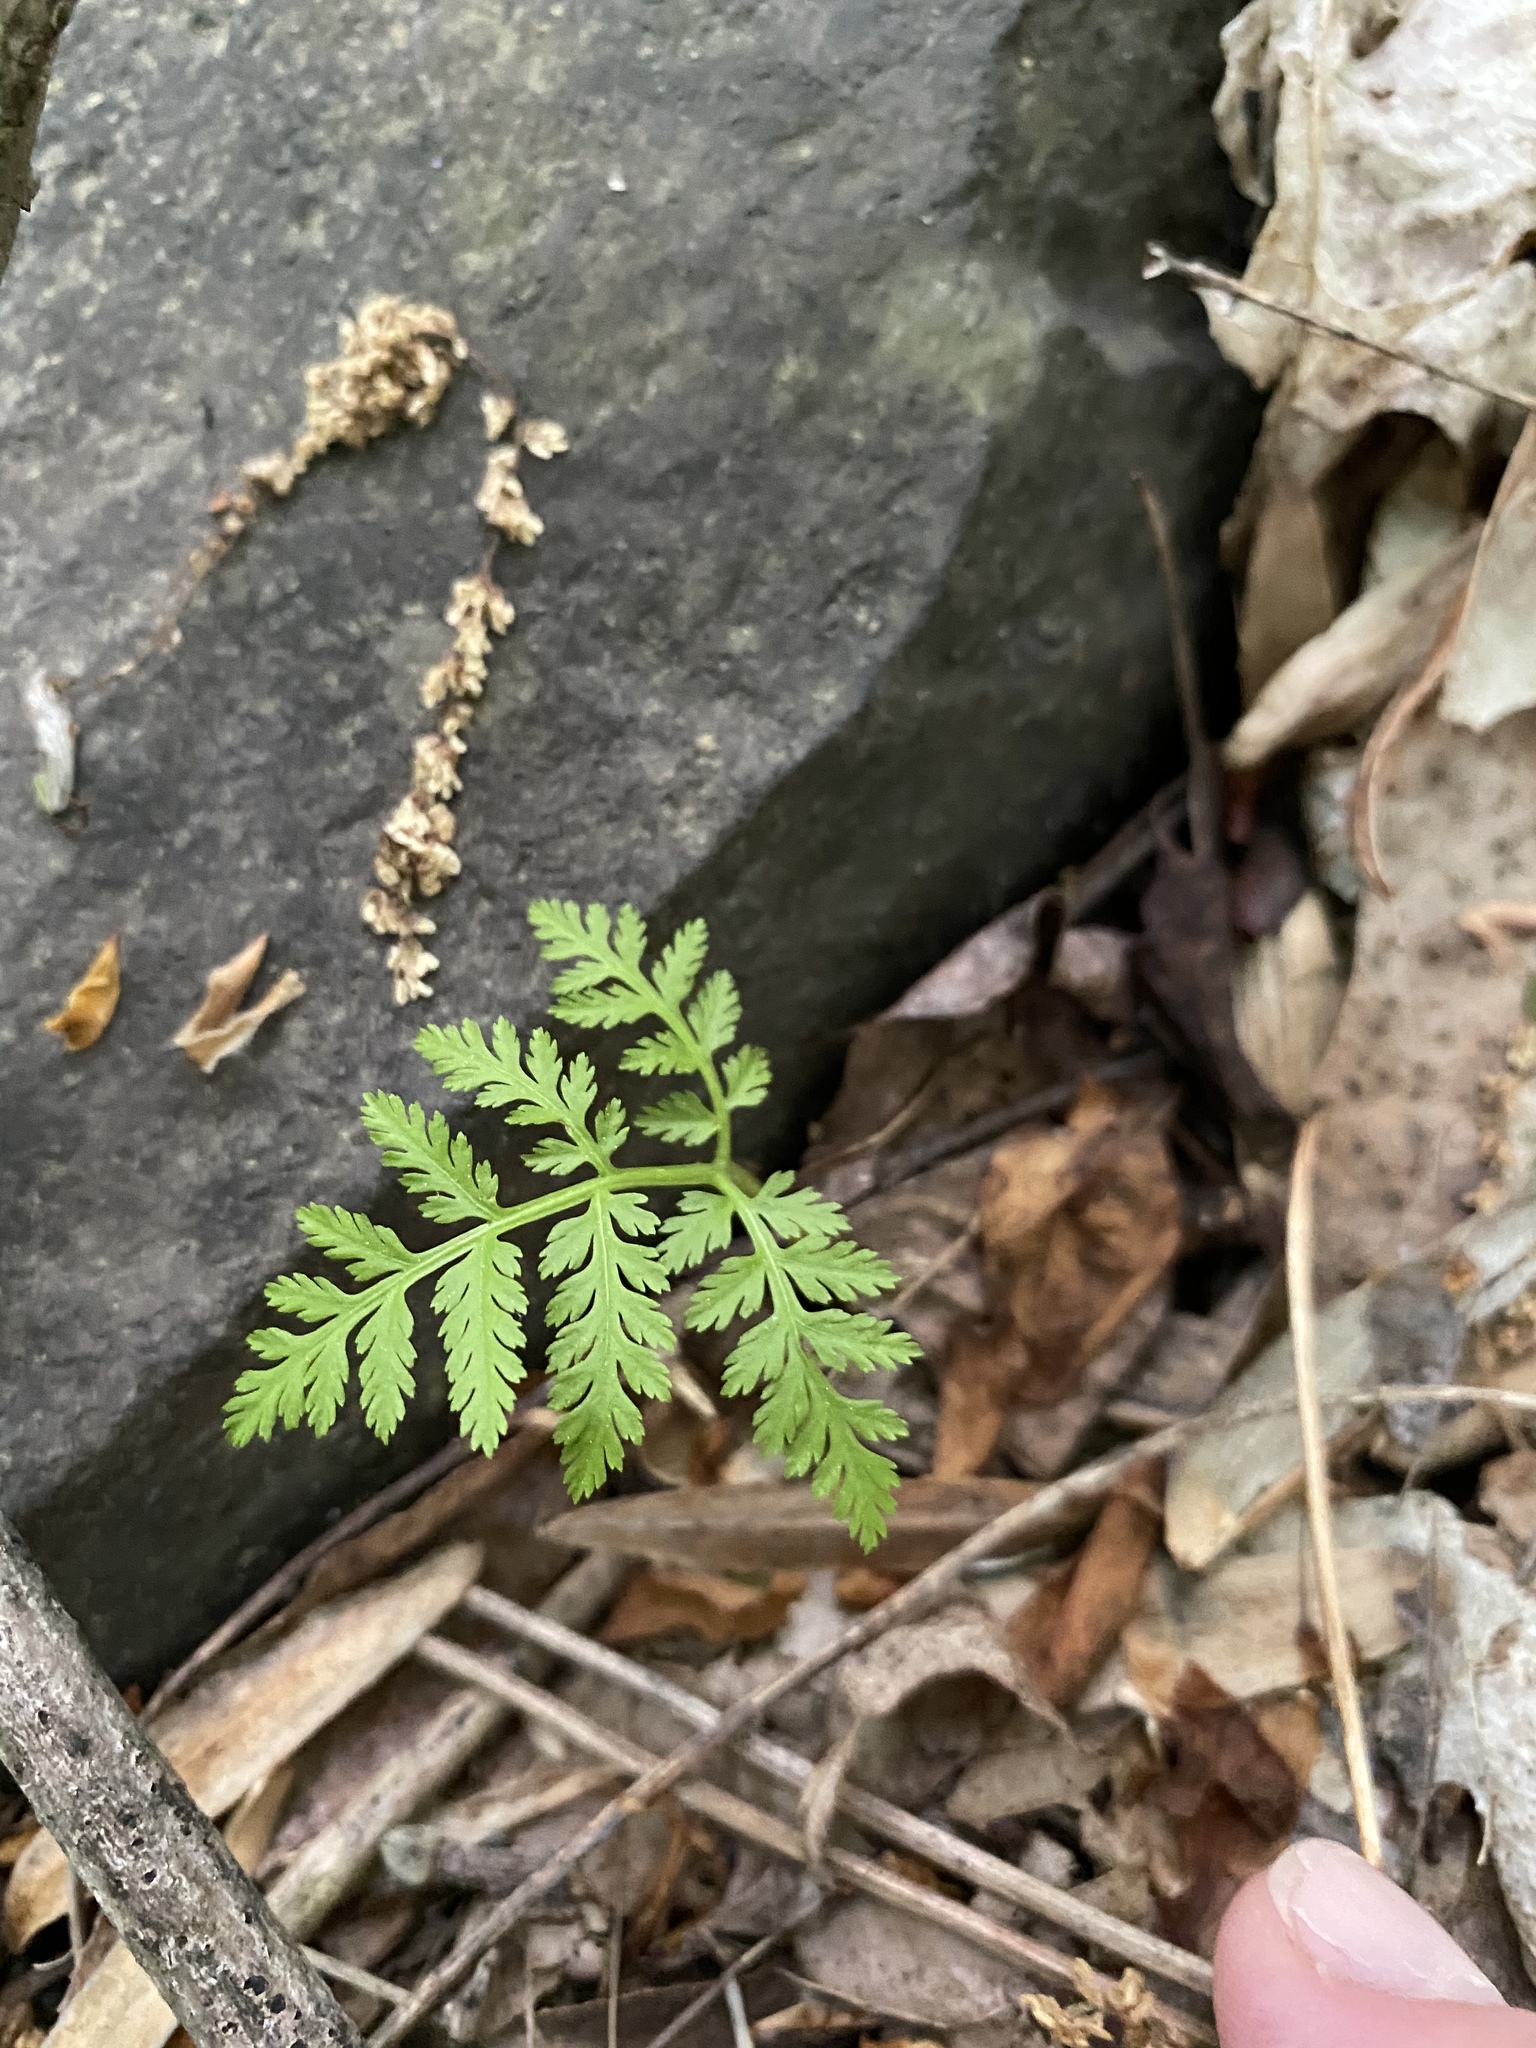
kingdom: Plantae
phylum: Tracheophyta
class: Polypodiopsida
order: Ophioglossales
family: Ophioglossaceae
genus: Botrypus
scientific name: Botrypus virginianus
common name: Common grapefern
